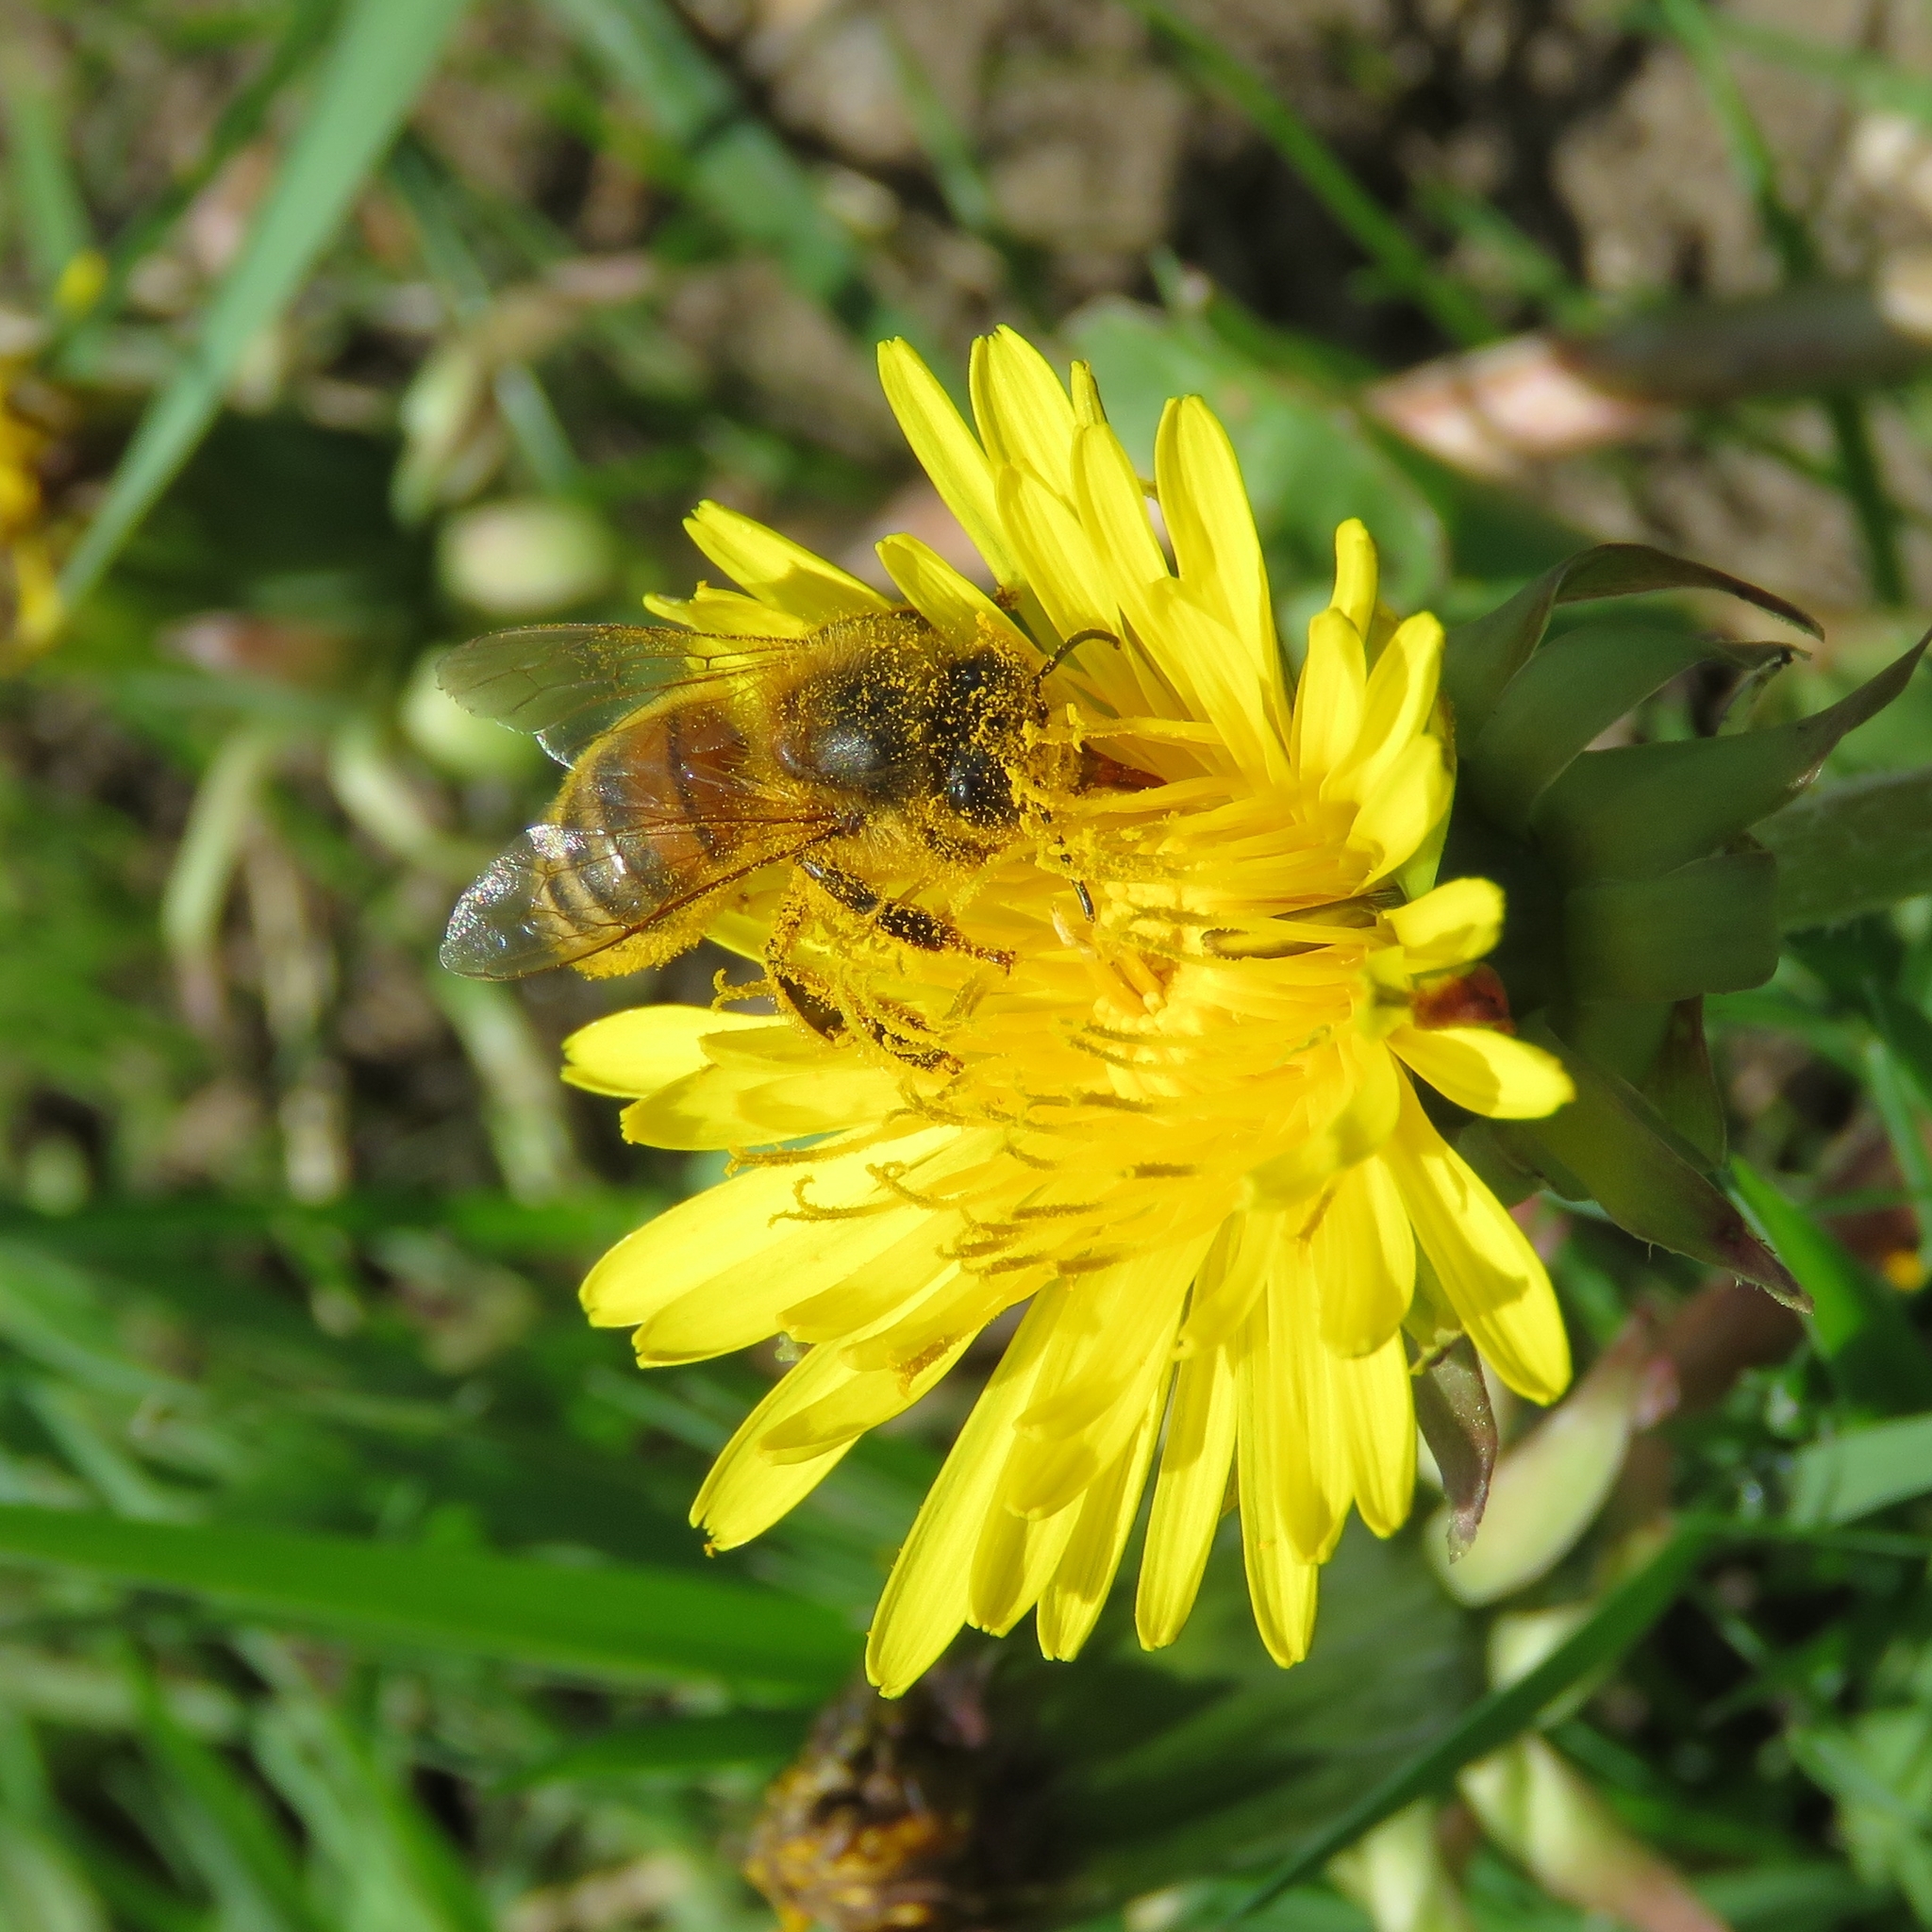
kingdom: Animalia
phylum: Arthropoda
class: Insecta
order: Hymenoptera
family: Apidae
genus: Apis
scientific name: Apis mellifera
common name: Honey bee
